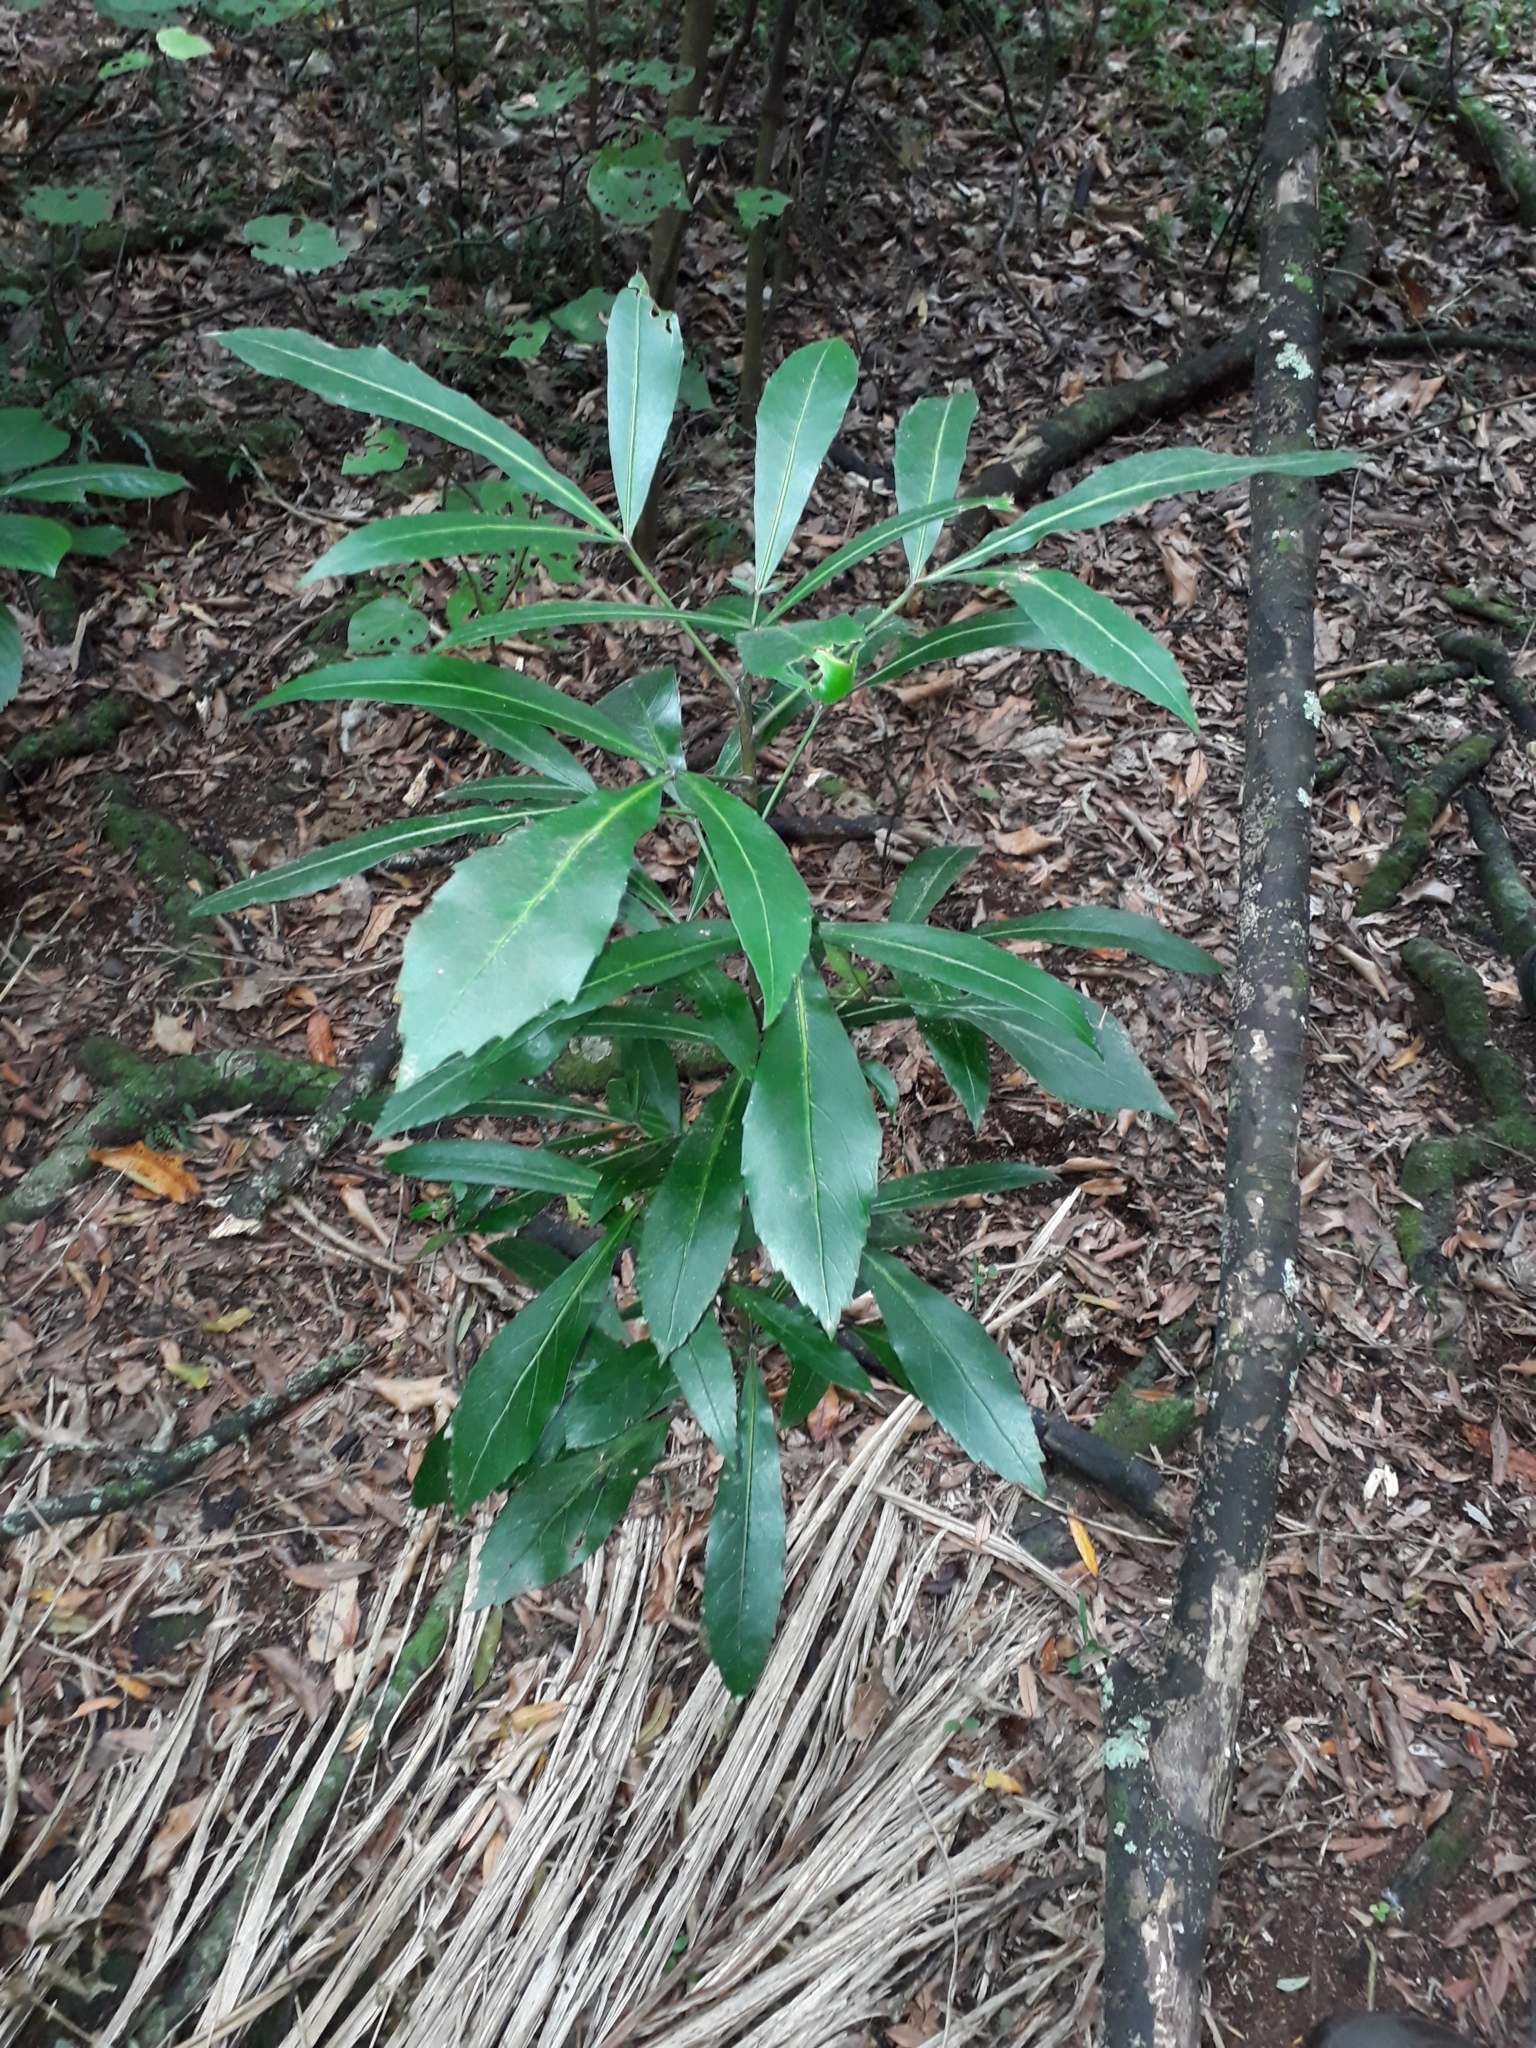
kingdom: Plantae
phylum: Tracheophyta
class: Magnoliopsida
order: Apiales
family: Araliaceae
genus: Pseudopanax
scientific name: Pseudopanax
